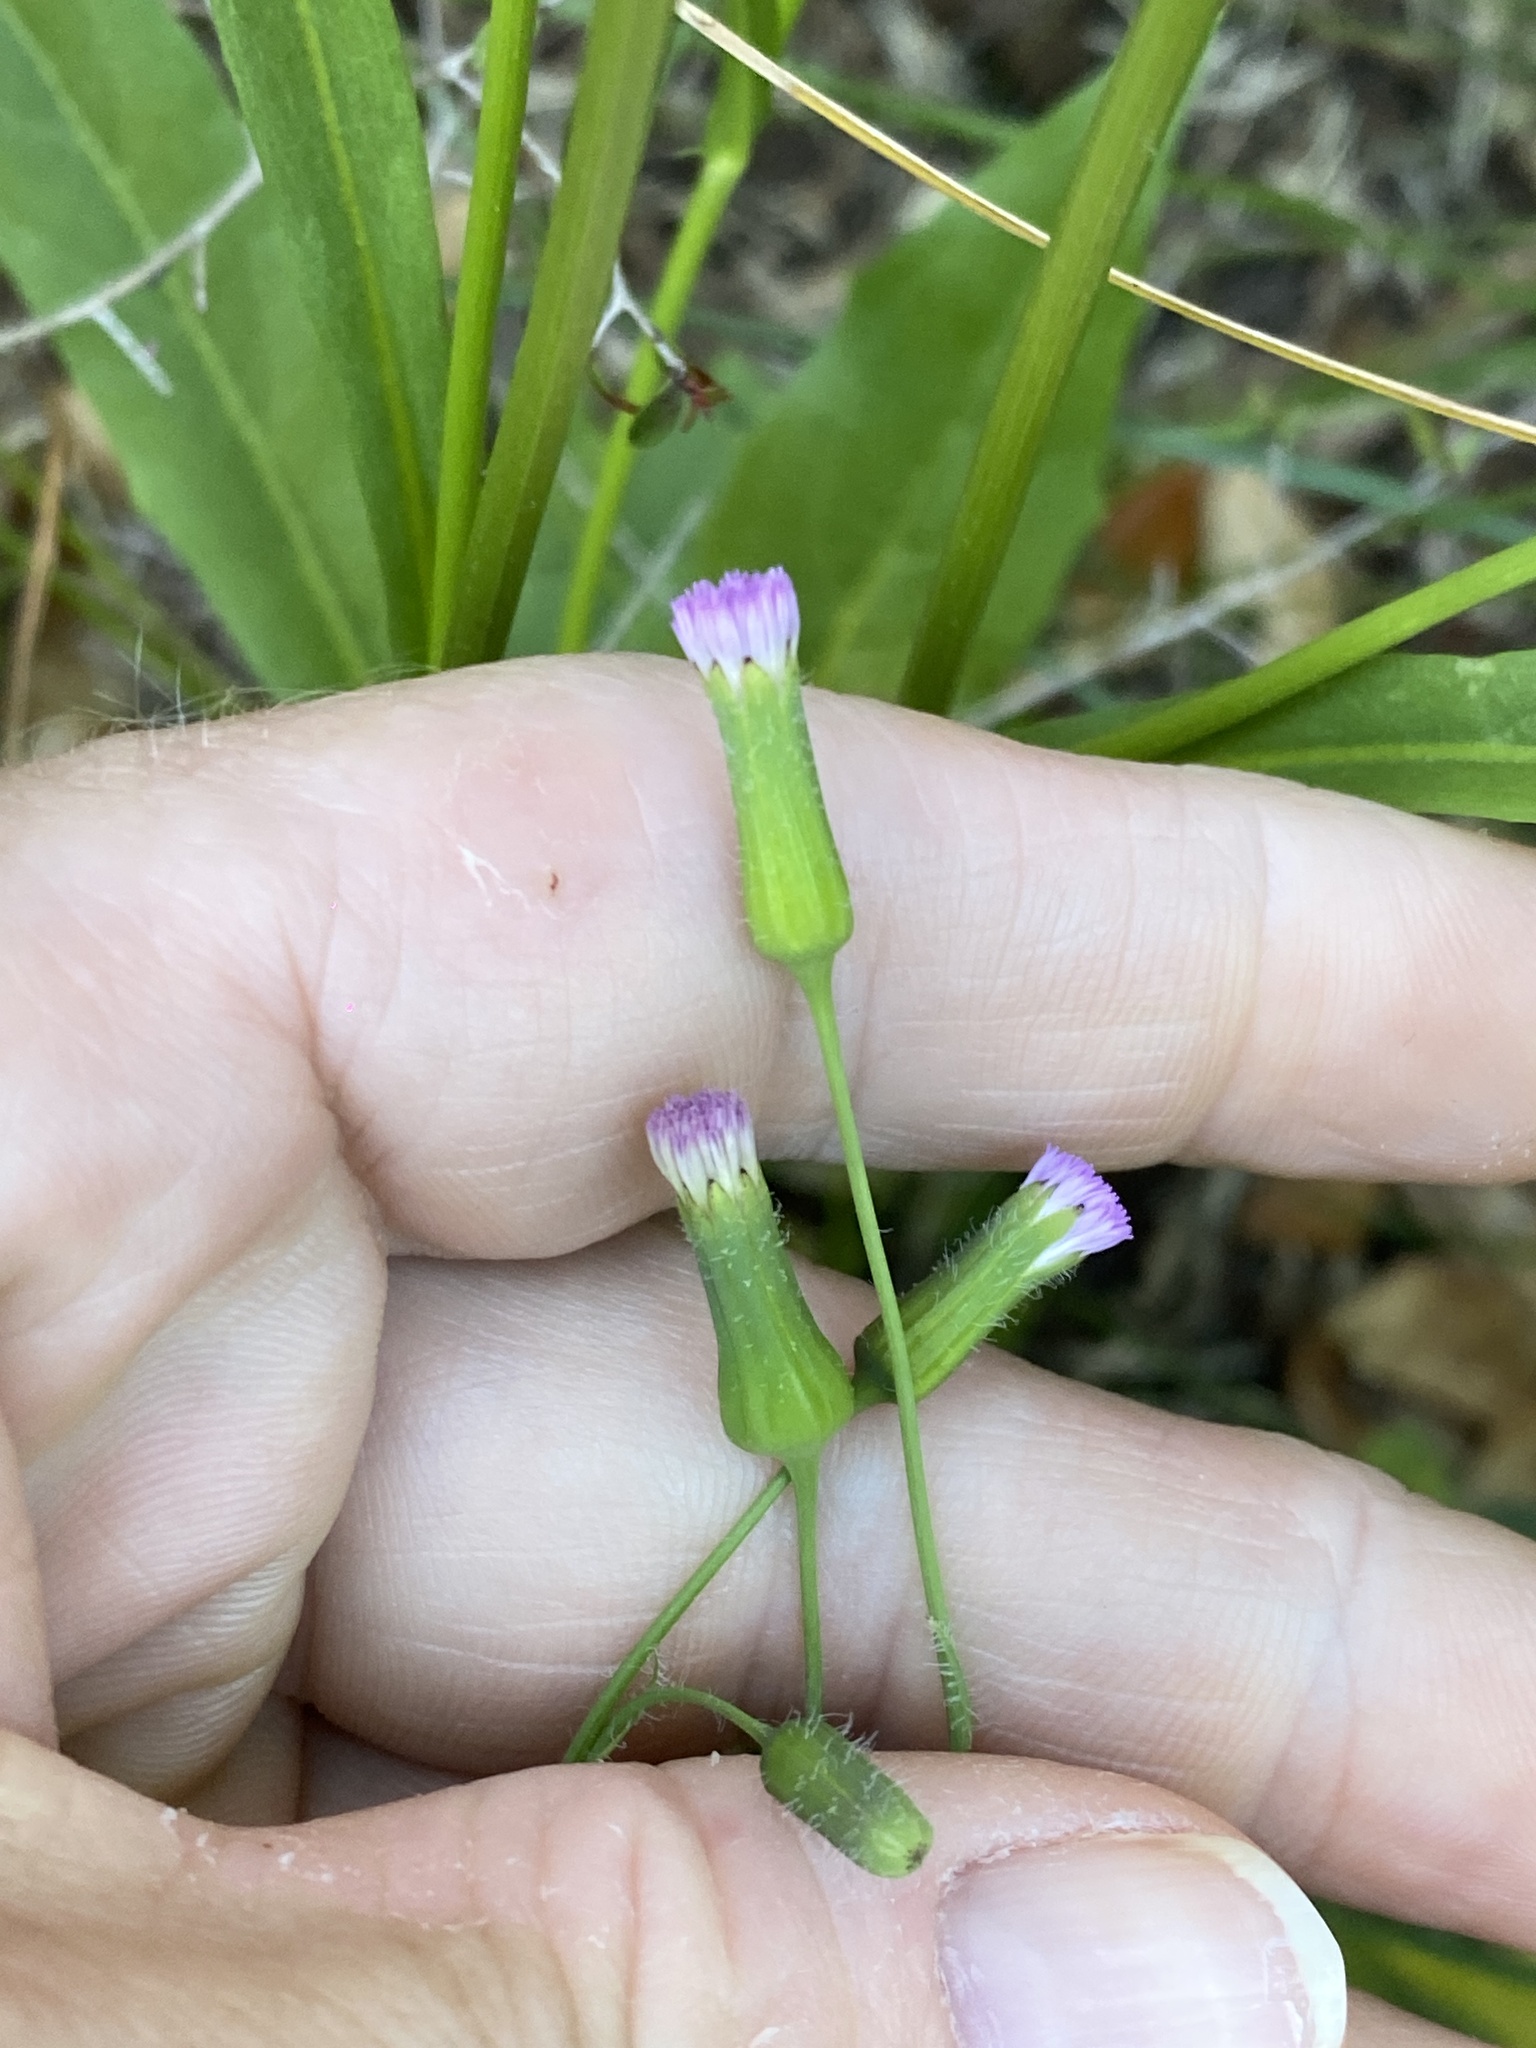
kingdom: Plantae
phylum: Tracheophyta
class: Magnoliopsida
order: Asterales
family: Asteraceae
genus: Emilia
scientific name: Emilia javanica
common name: Tassel-flower
